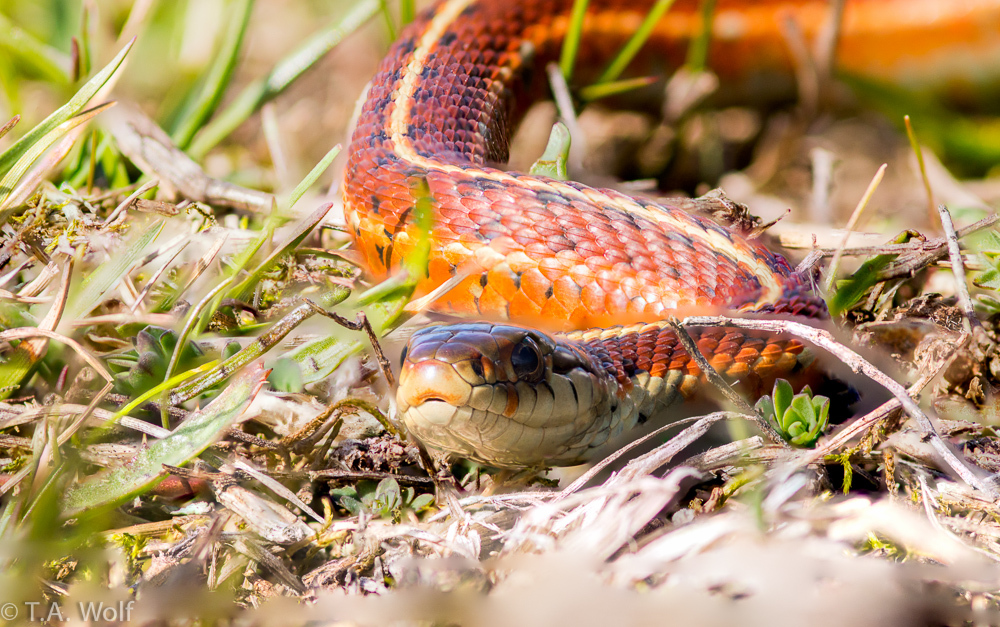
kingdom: Animalia
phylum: Chordata
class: Squamata
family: Colubridae
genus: Thamnophis
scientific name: Thamnophis elegans
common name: Western terrestrial garter snake
